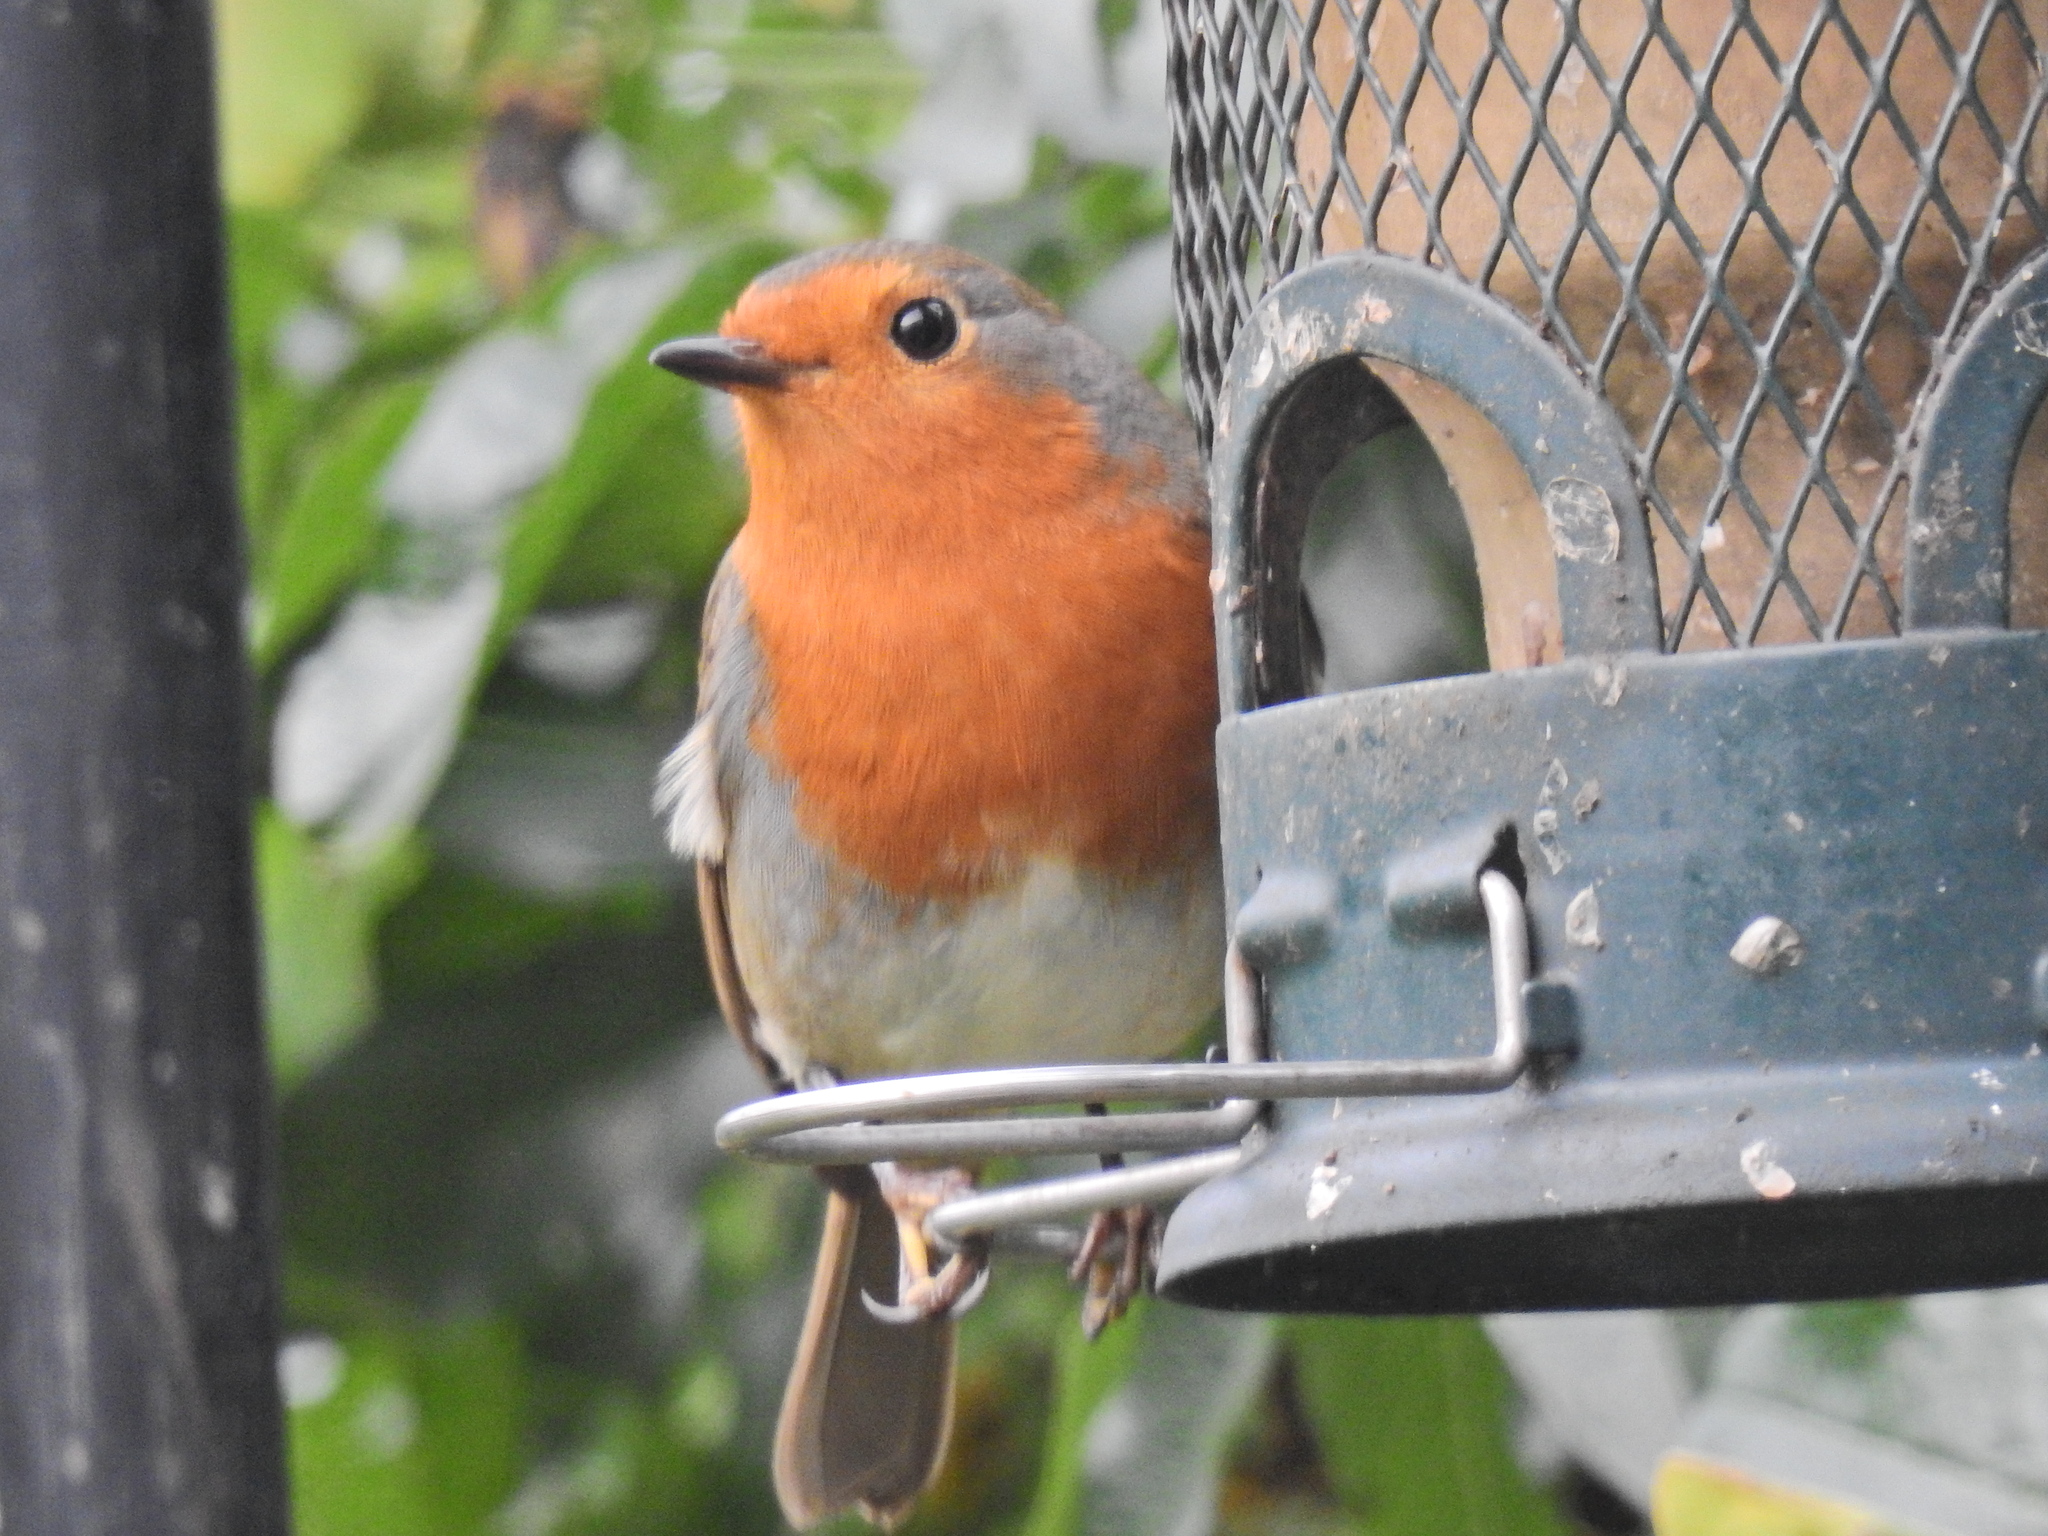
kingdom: Animalia
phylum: Chordata
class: Aves
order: Passeriformes
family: Muscicapidae
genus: Erithacus
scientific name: Erithacus rubecula
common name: European robin
